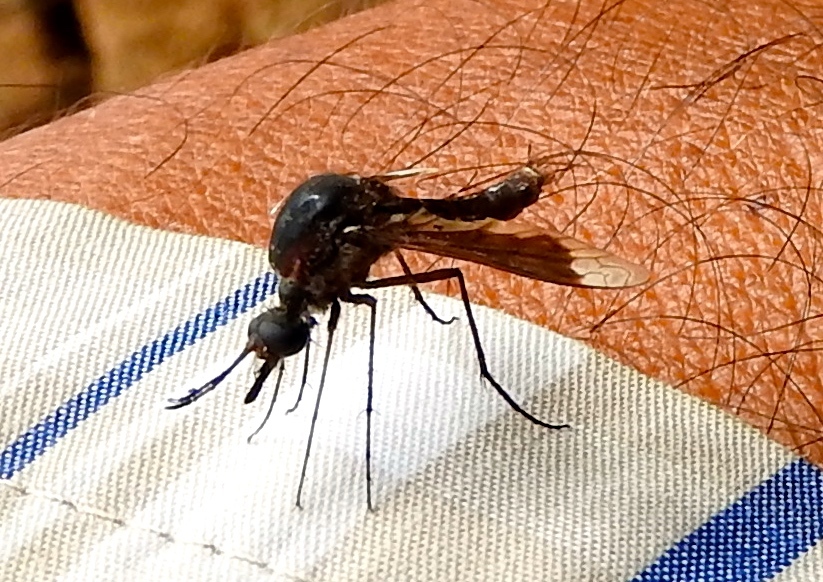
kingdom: Animalia
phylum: Arthropoda
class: Insecta
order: Diptera
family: Bombyliidae
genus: Lepidophora
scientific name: Lepidophora vetusta
